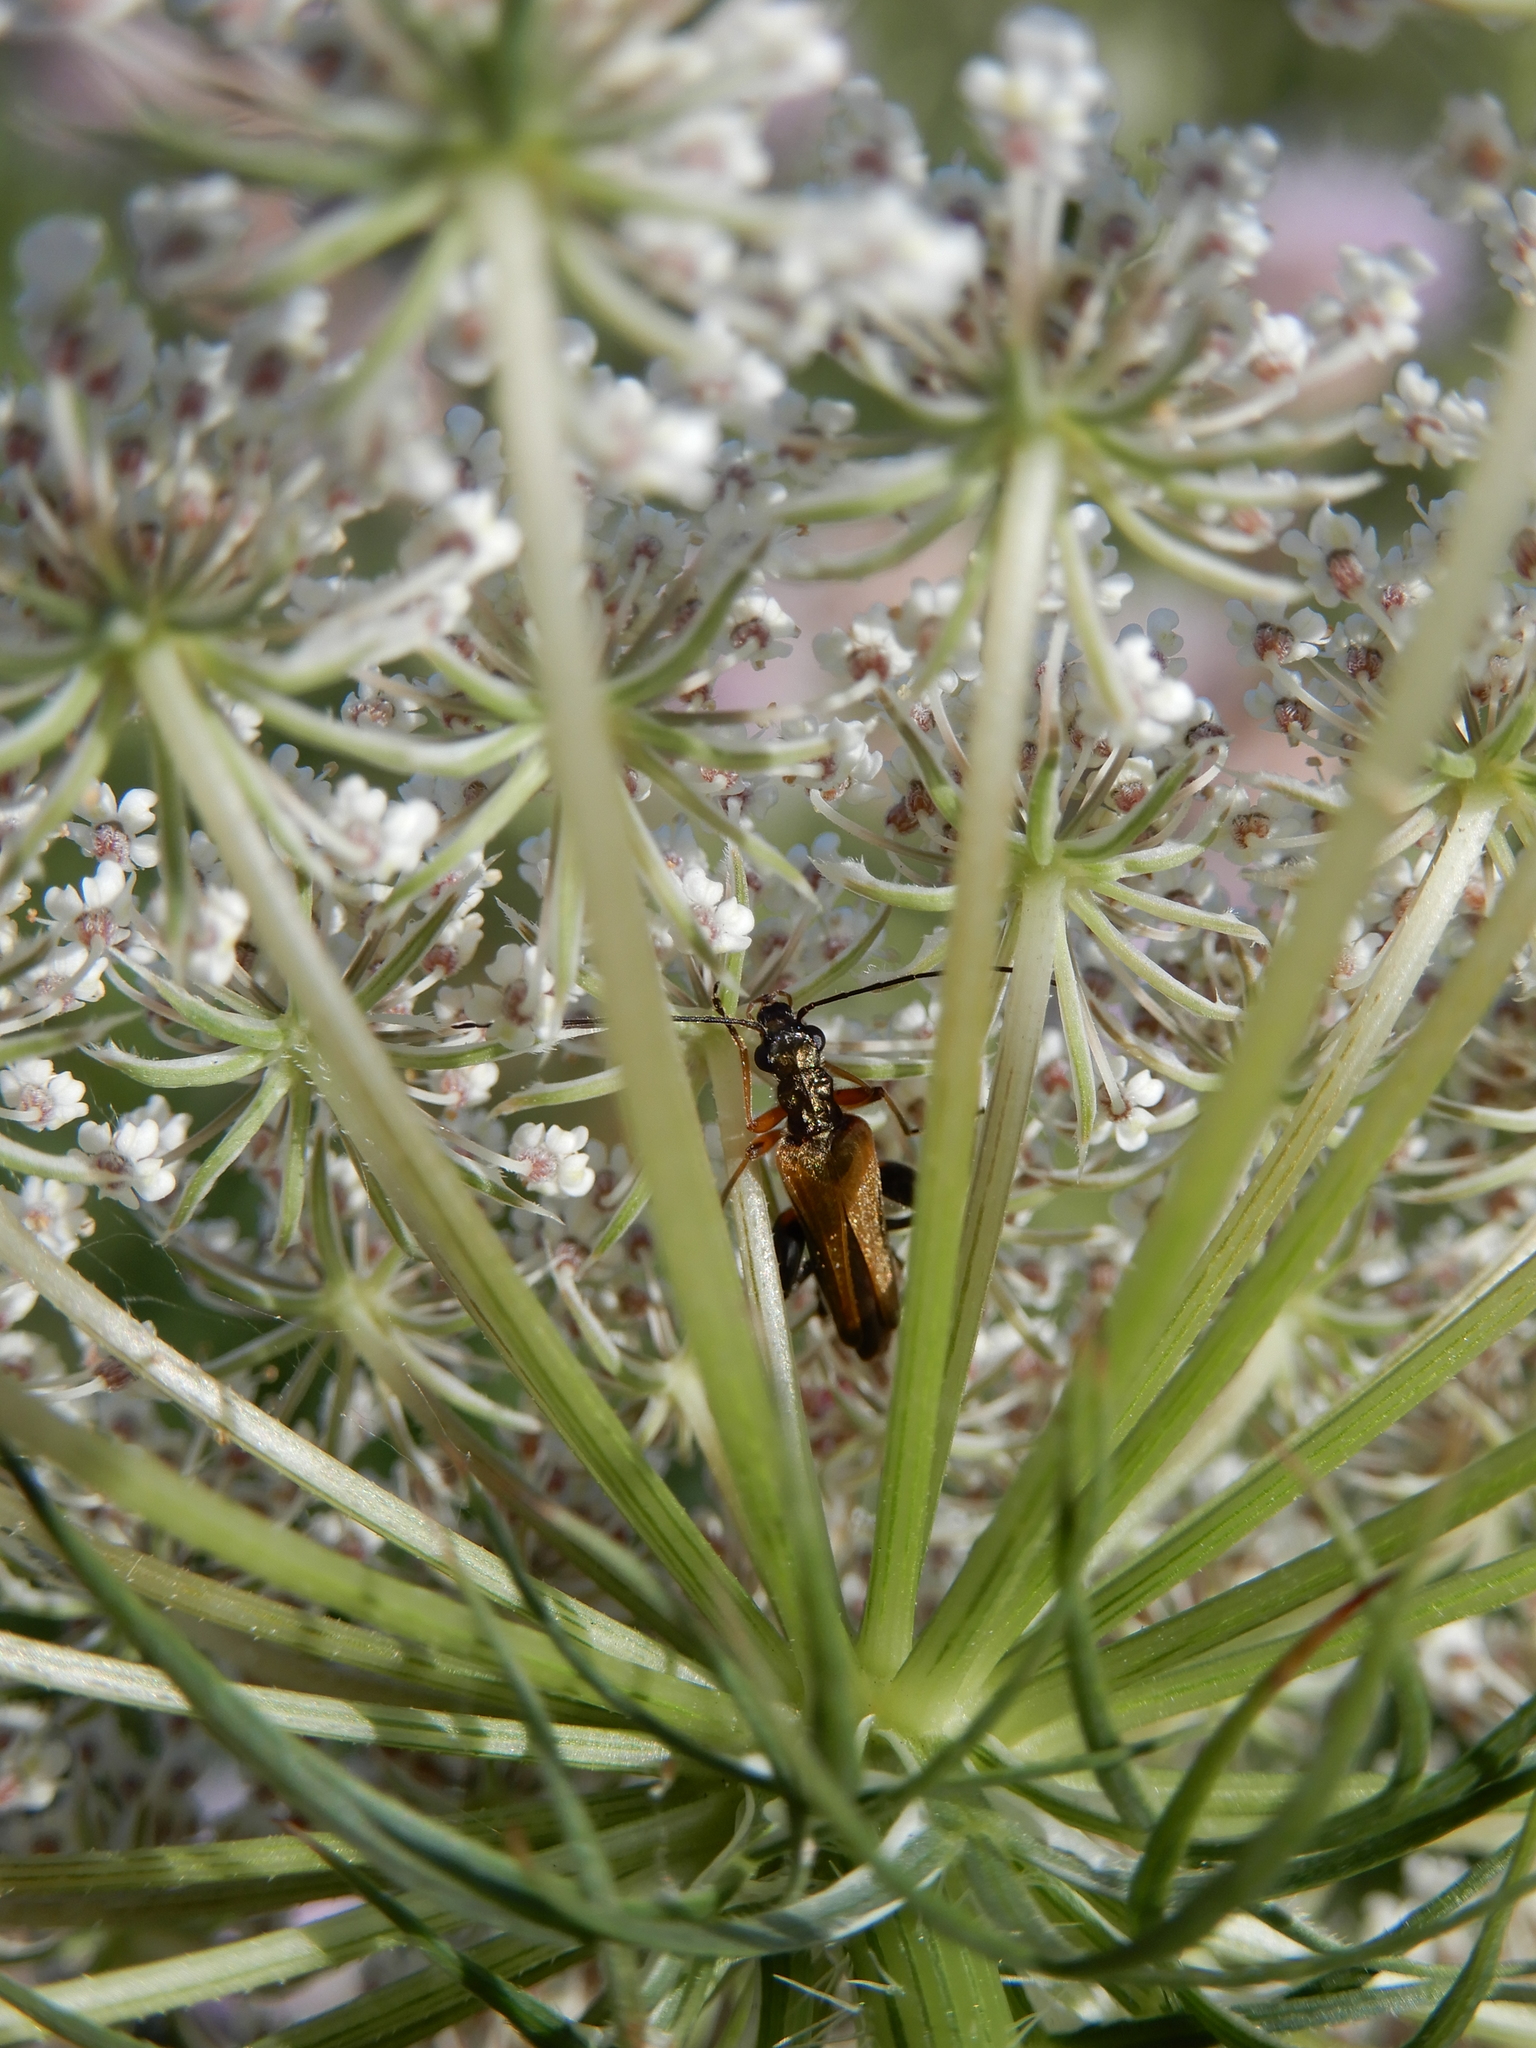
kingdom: Animalia
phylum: Arthropoda
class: Insecta
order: Coleoptera
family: Oedemeridae
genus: Oedemera
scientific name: Oedemera podagrariae
